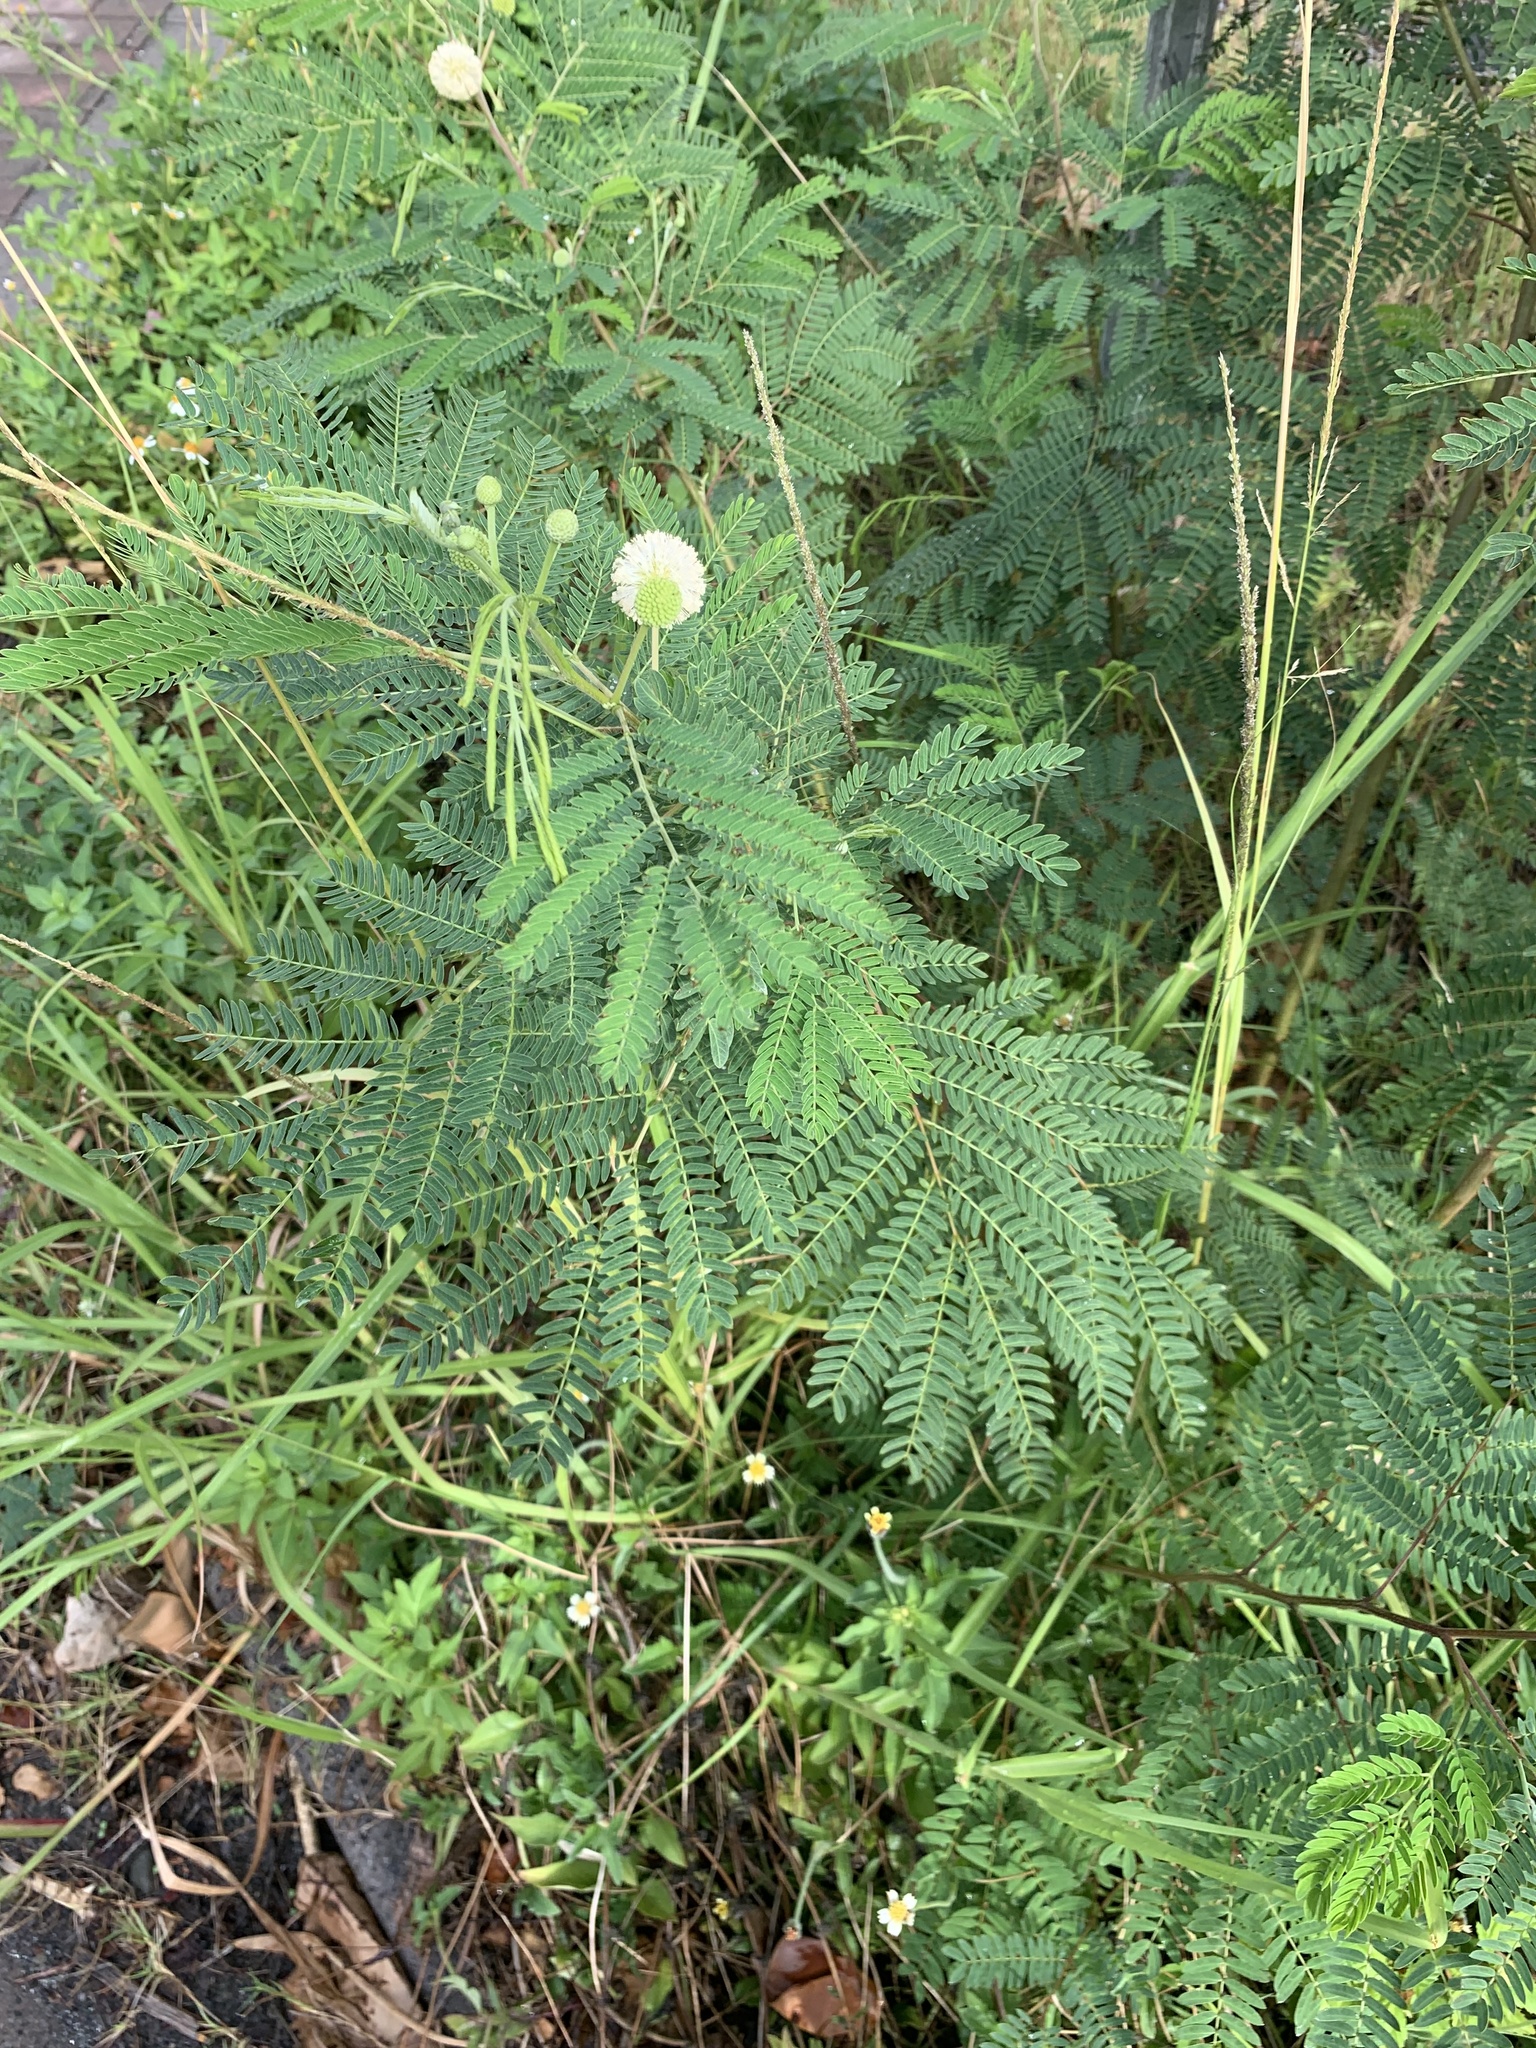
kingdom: Plantae
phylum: Tracheophyta
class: Magnoliopsida
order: Fabales
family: Fabaceae
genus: Leucaena
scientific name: Leucaena leucocephala
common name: White leadtree
